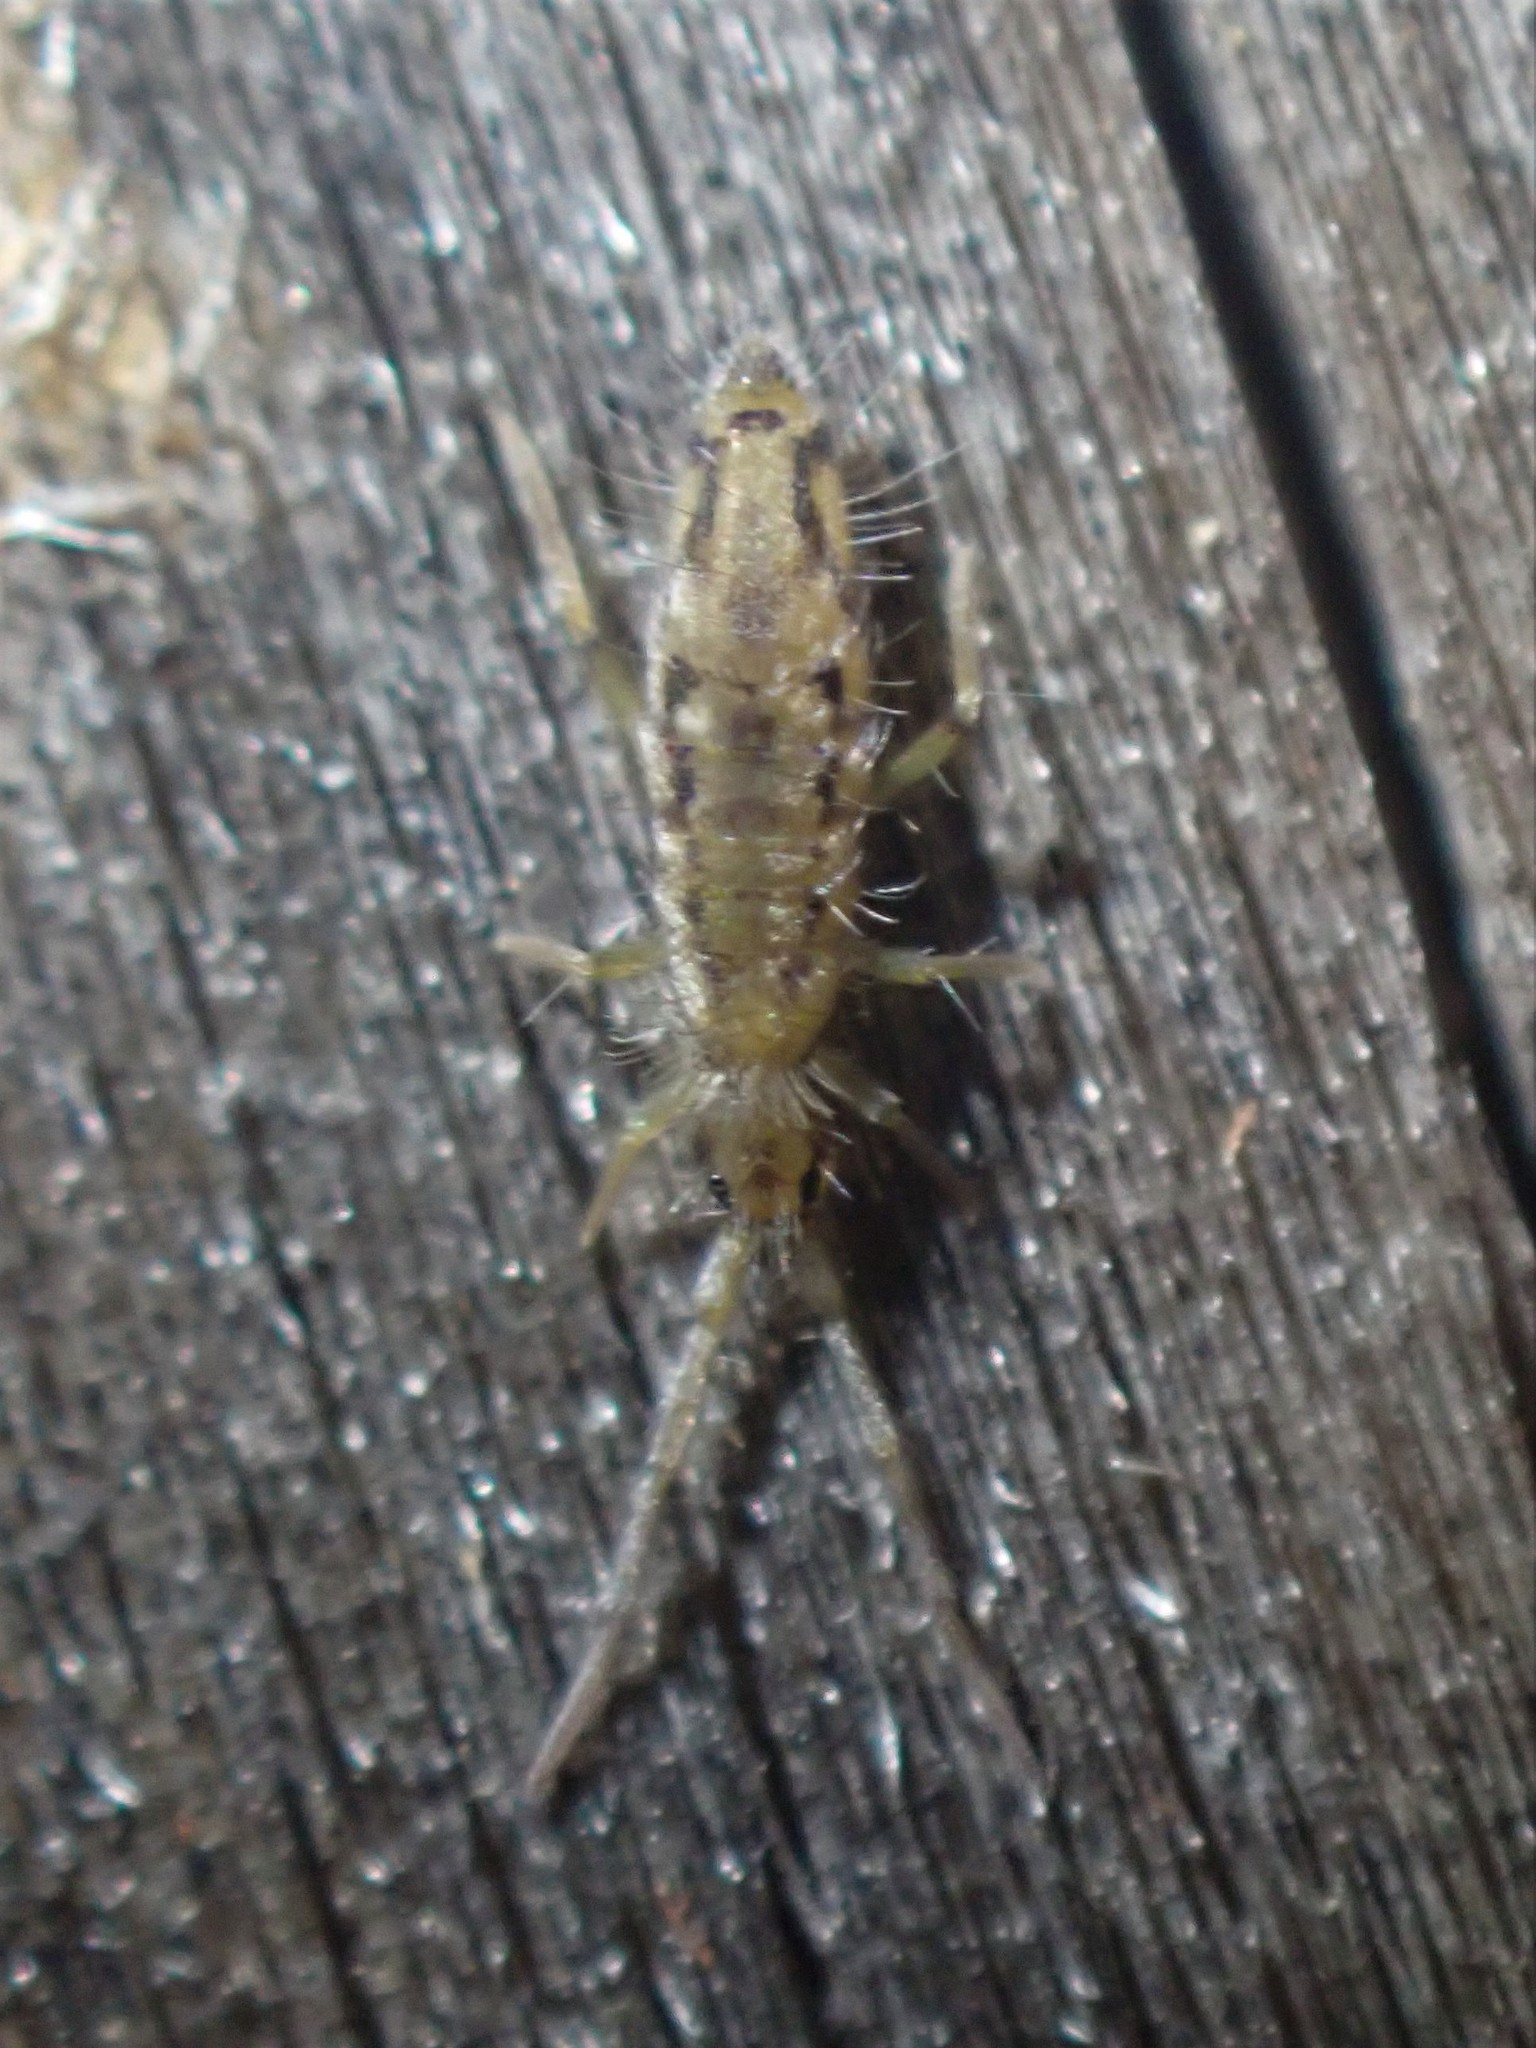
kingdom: Animalia
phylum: Arthropoda
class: Collembola
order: Entomobryomorpha
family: Entomobryidae
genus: Entomobrya
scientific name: Entomobrya katzi
